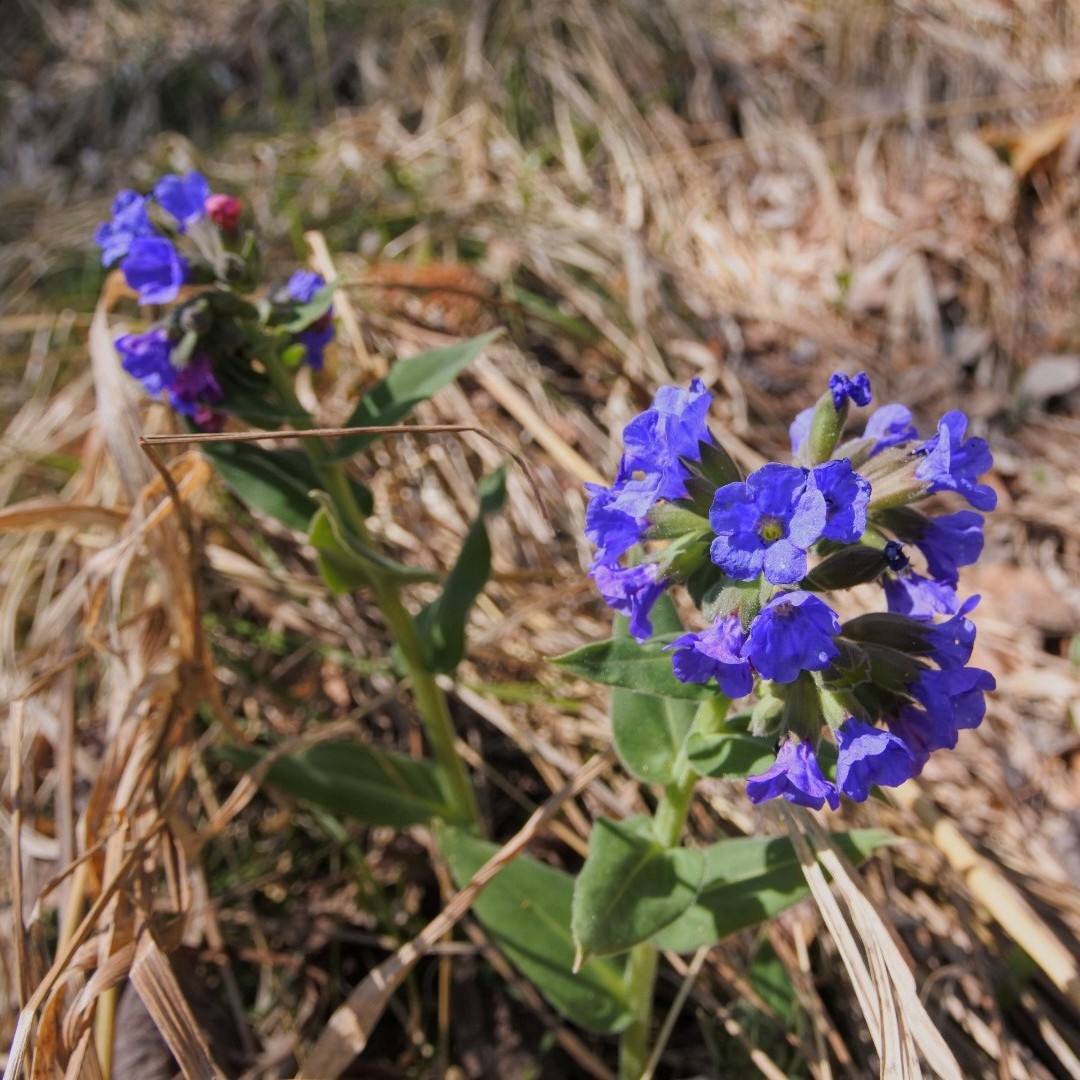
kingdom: Plantae
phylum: Tracheophyta
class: Magnoliopsida
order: Boraginales
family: Boraginaceae
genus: Pulmonaria
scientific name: Pulmonaria mollis
